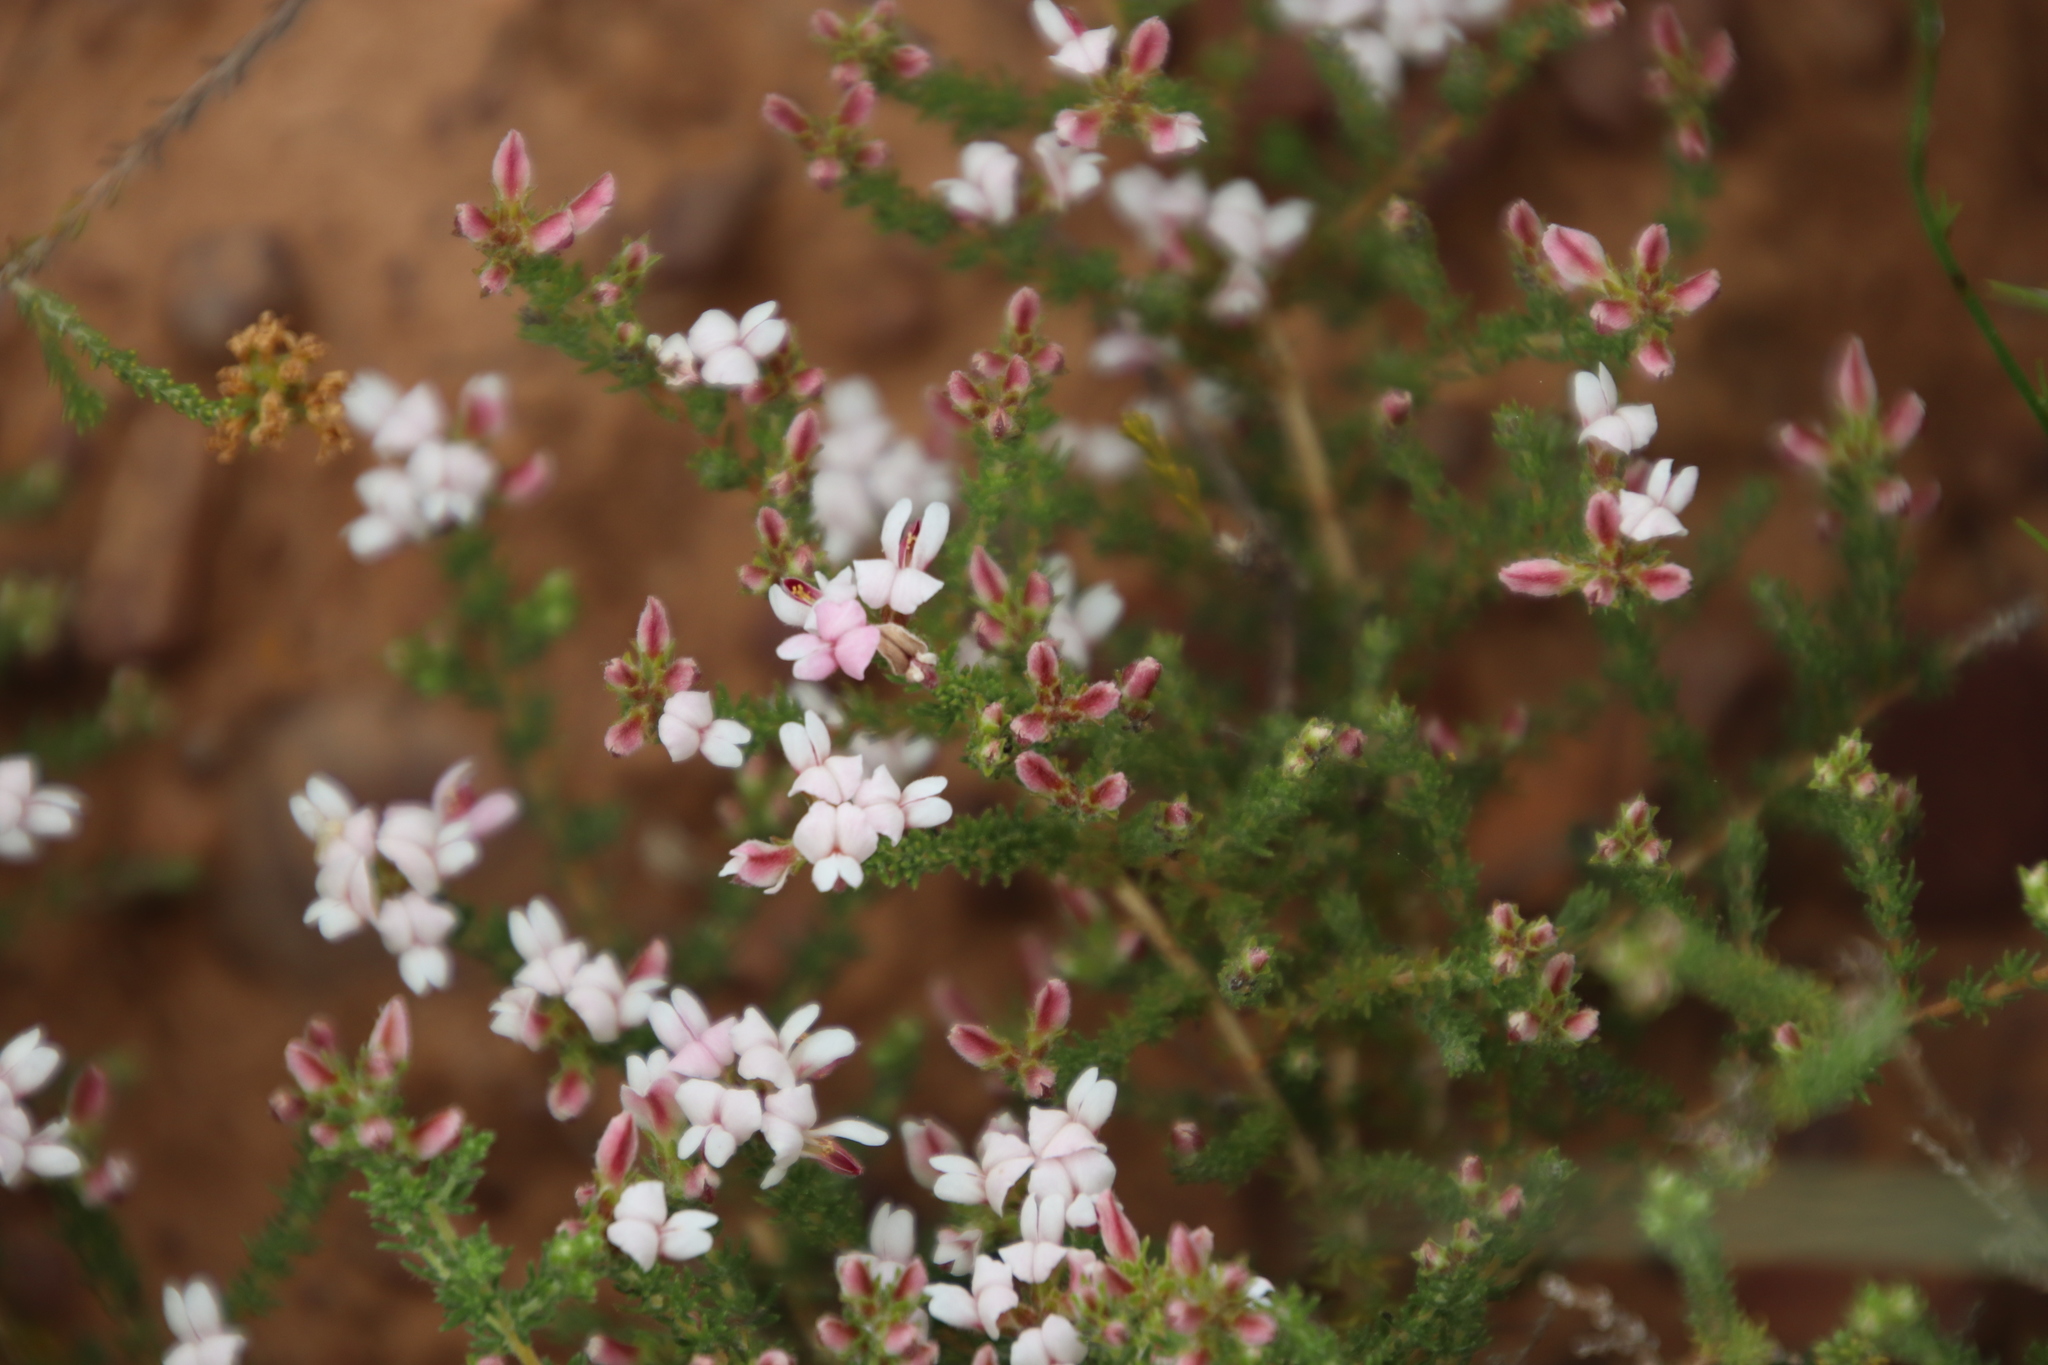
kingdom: Plantae
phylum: Tracheophyta
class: Magnoliopsida
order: Fabales
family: Fabaceae
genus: Aspalathus
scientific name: Aspalathus submissa
